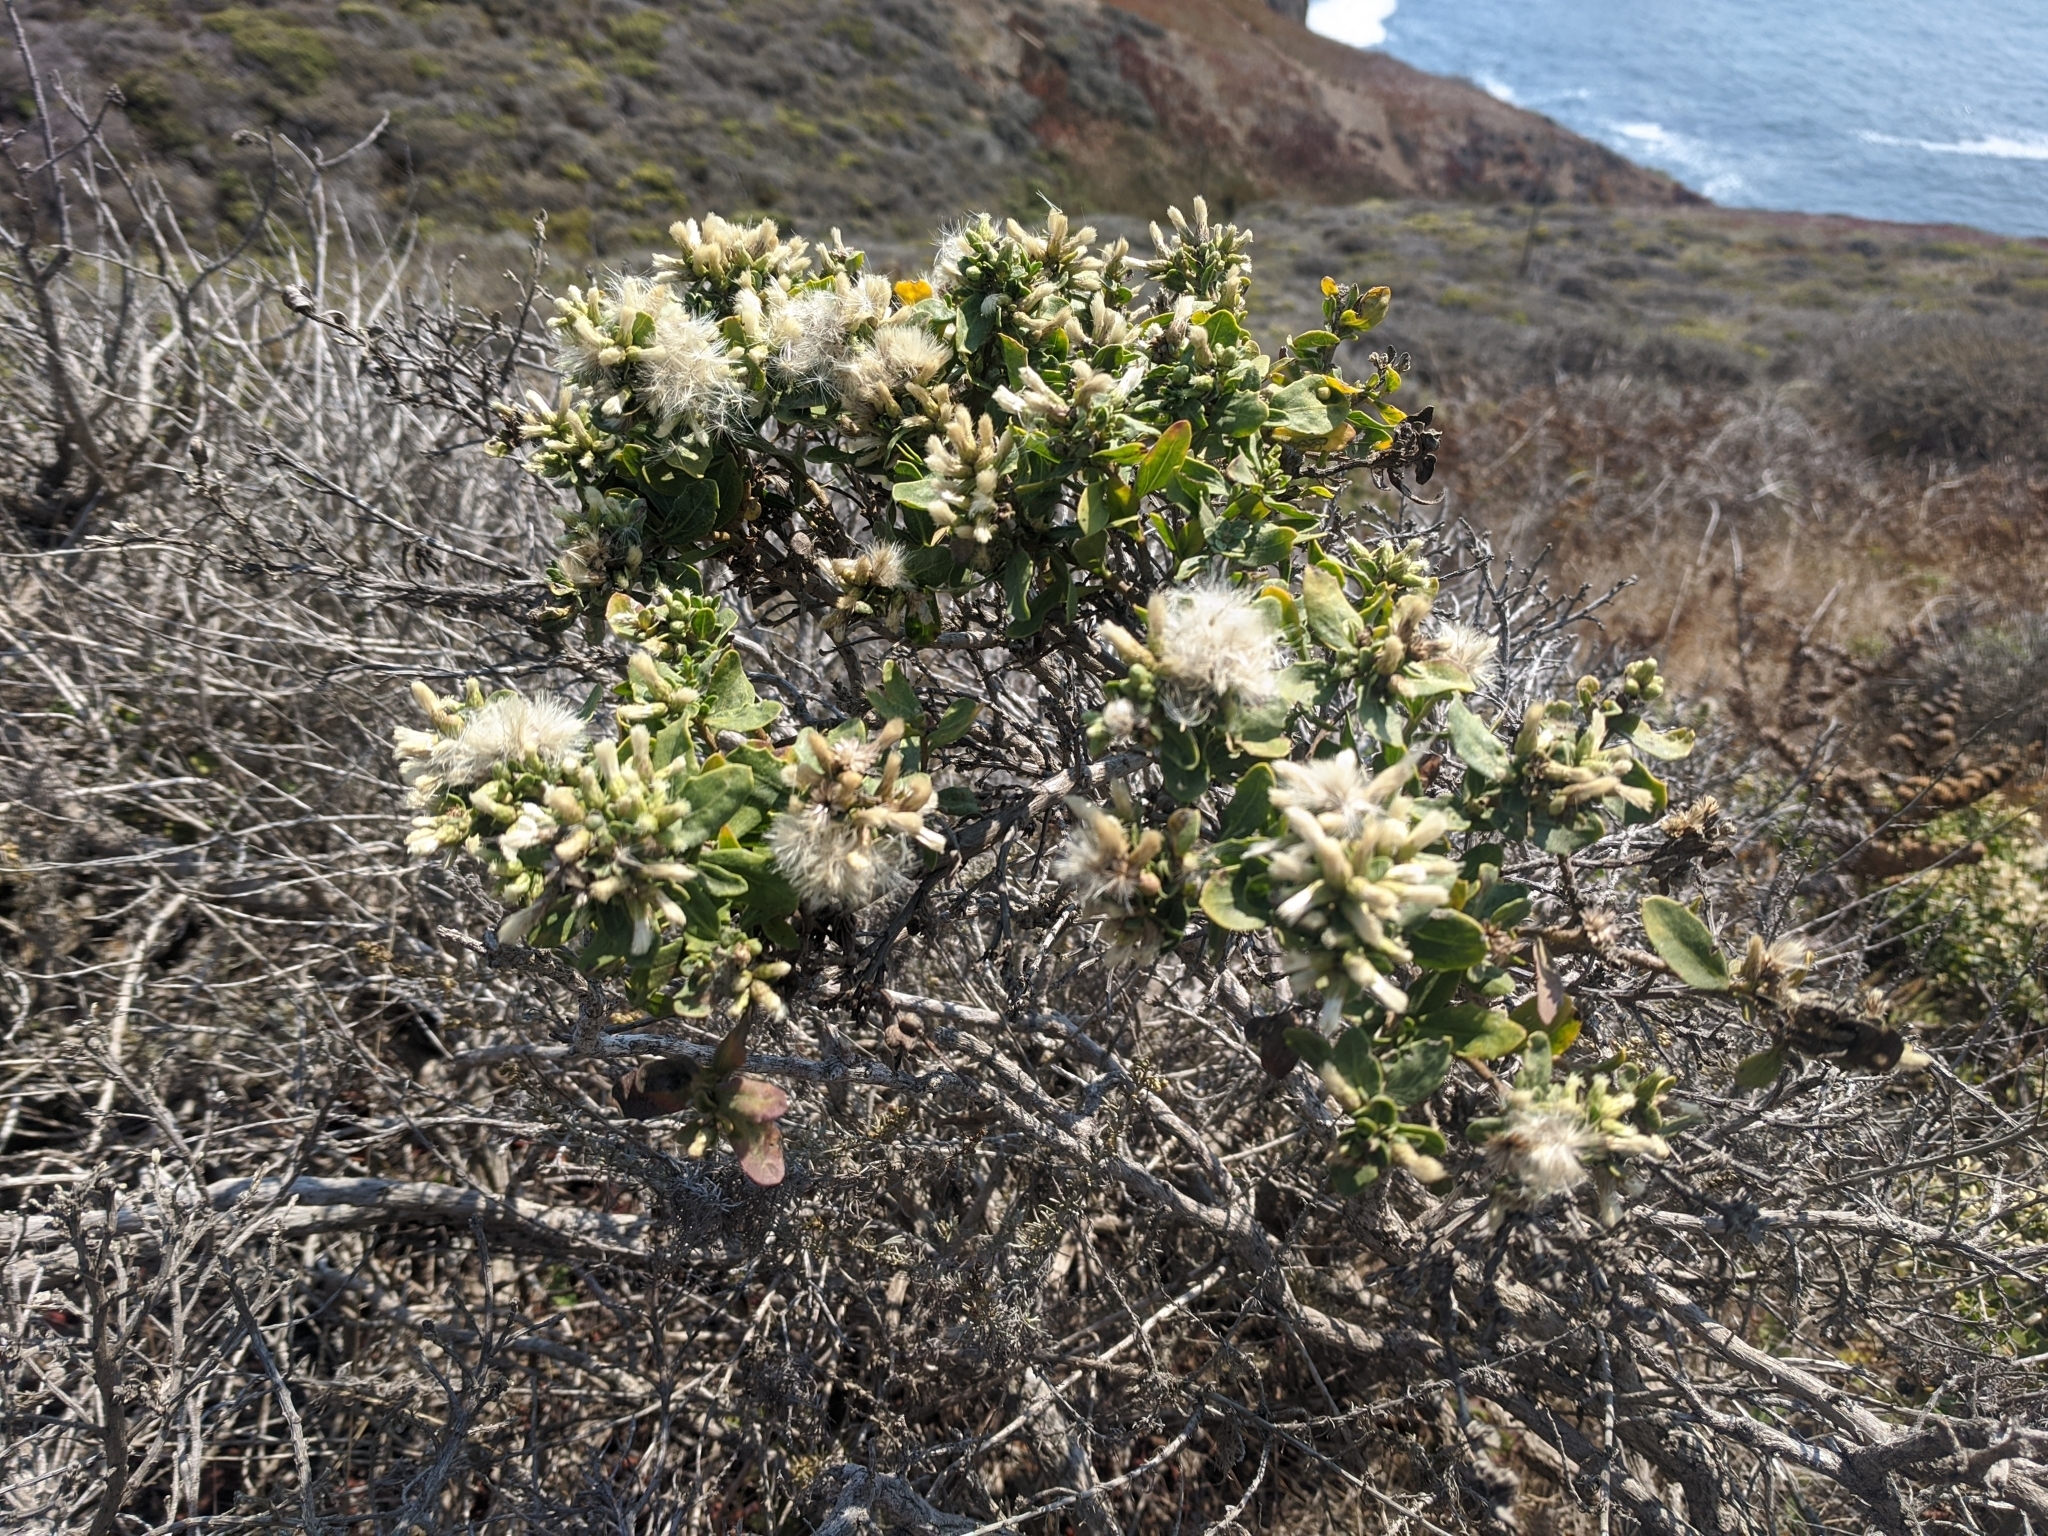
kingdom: Plantae
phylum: Tracheophyta
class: Magnoliopsida
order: Asterales
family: Asteraceae
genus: Baccharis
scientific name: Baccharis pilularis
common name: Coyotebrush
